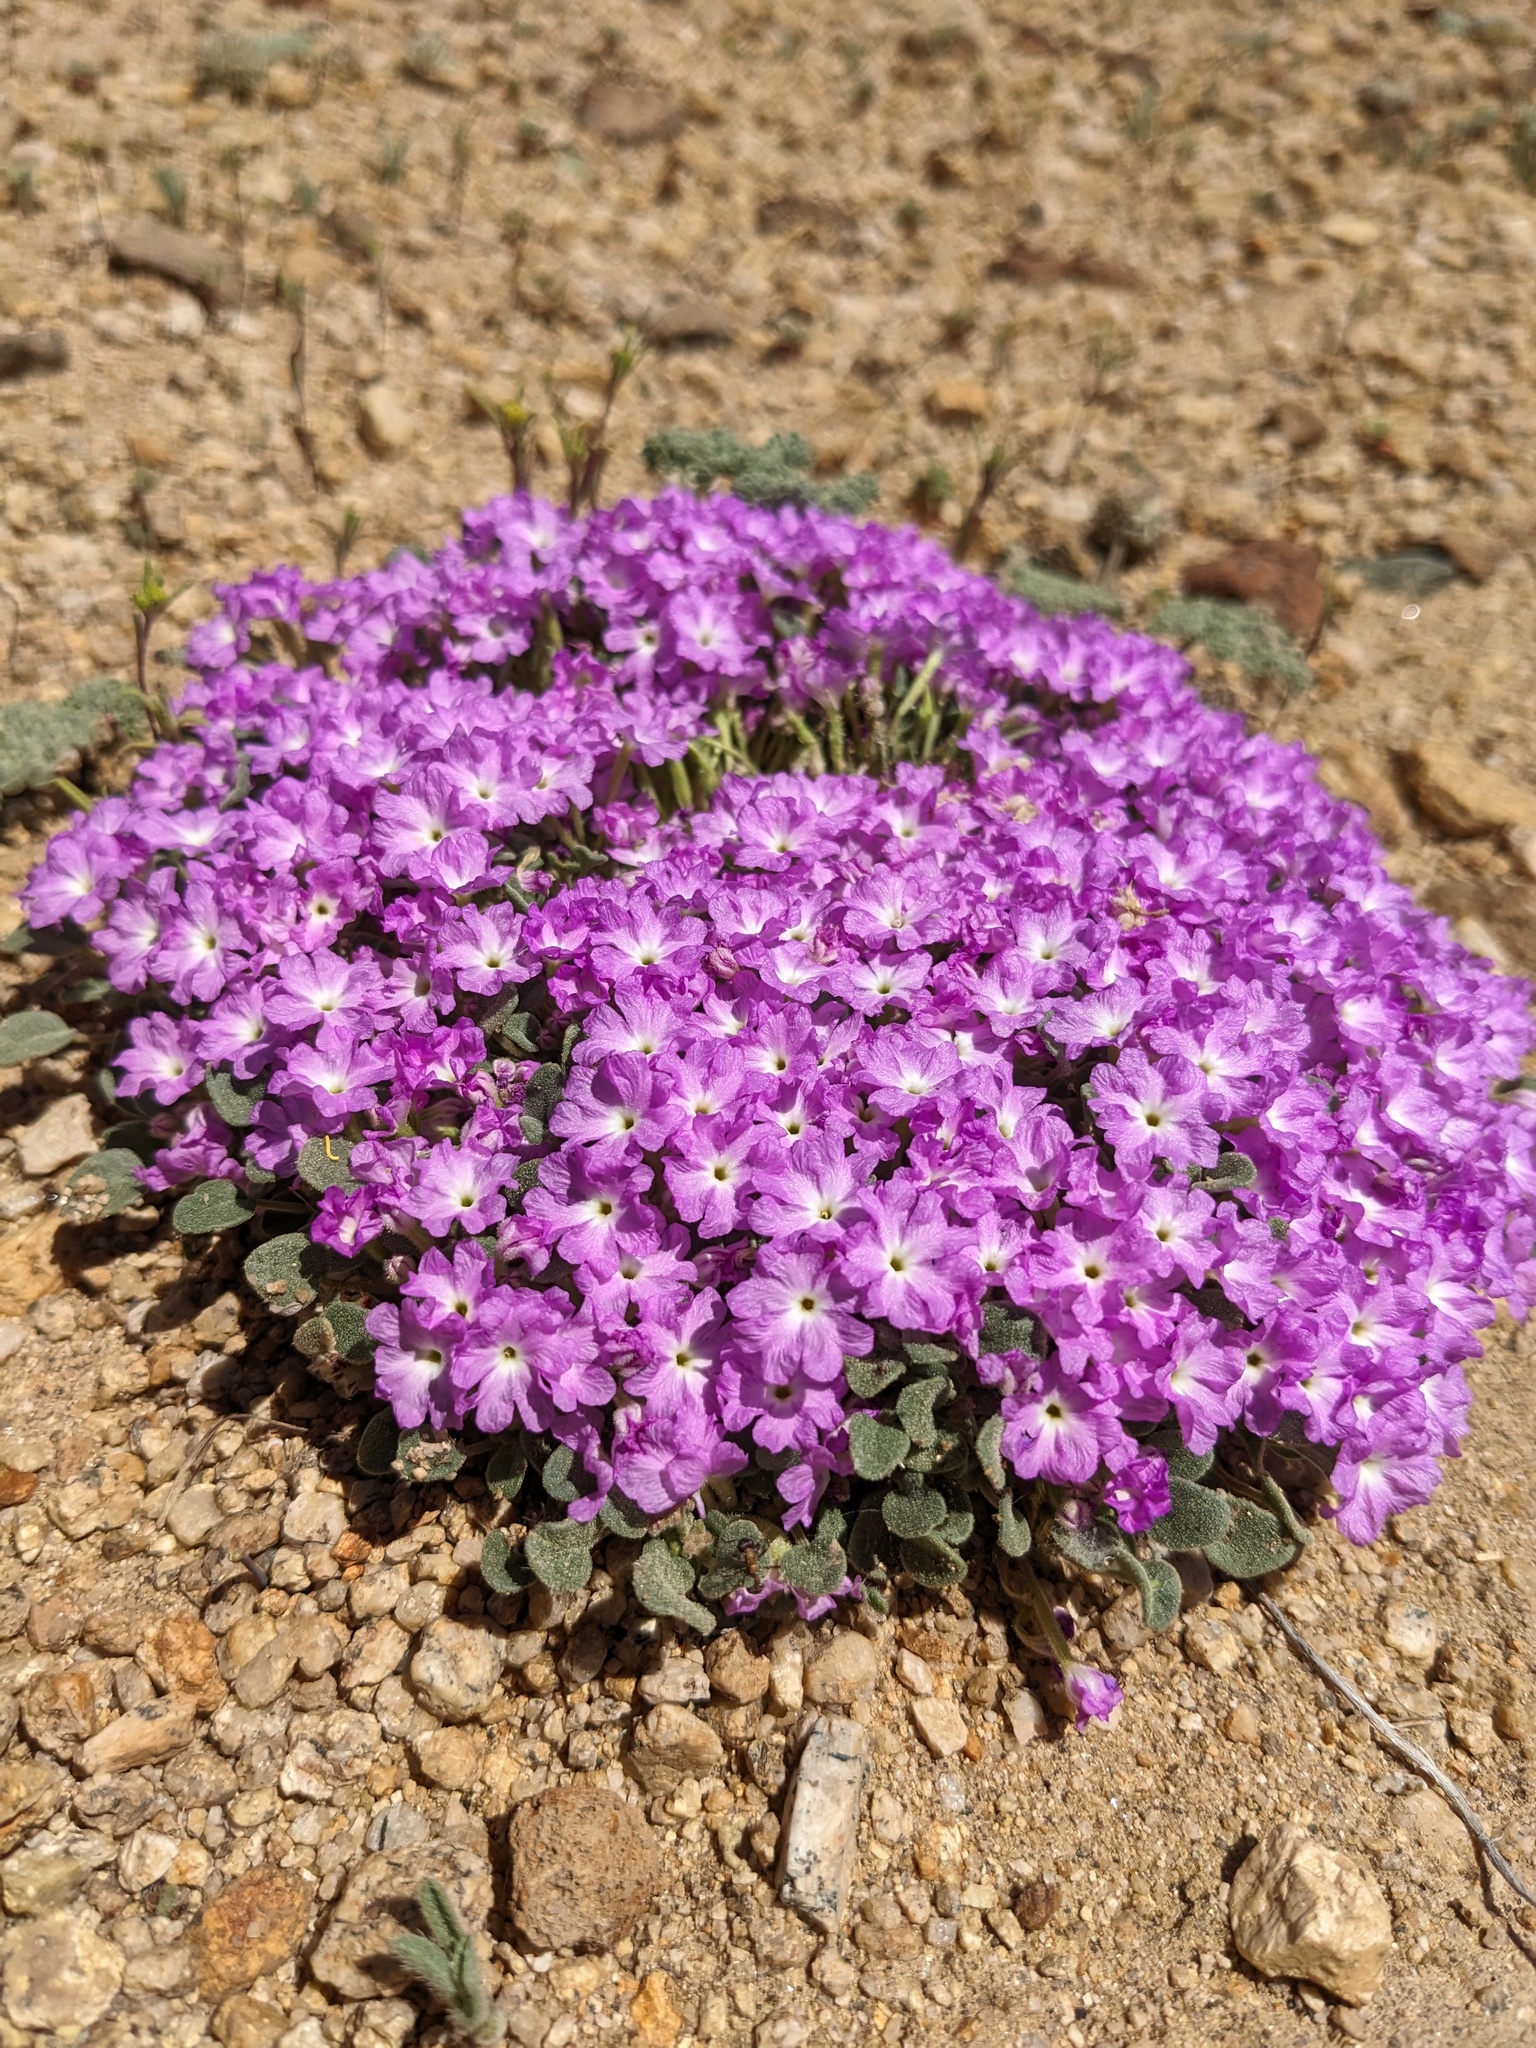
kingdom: Plantae
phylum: Tracheophyta
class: Magnoliopsida
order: Caryophyllales
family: Nyctaginaceae
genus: Abronia
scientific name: Abronia alpina
